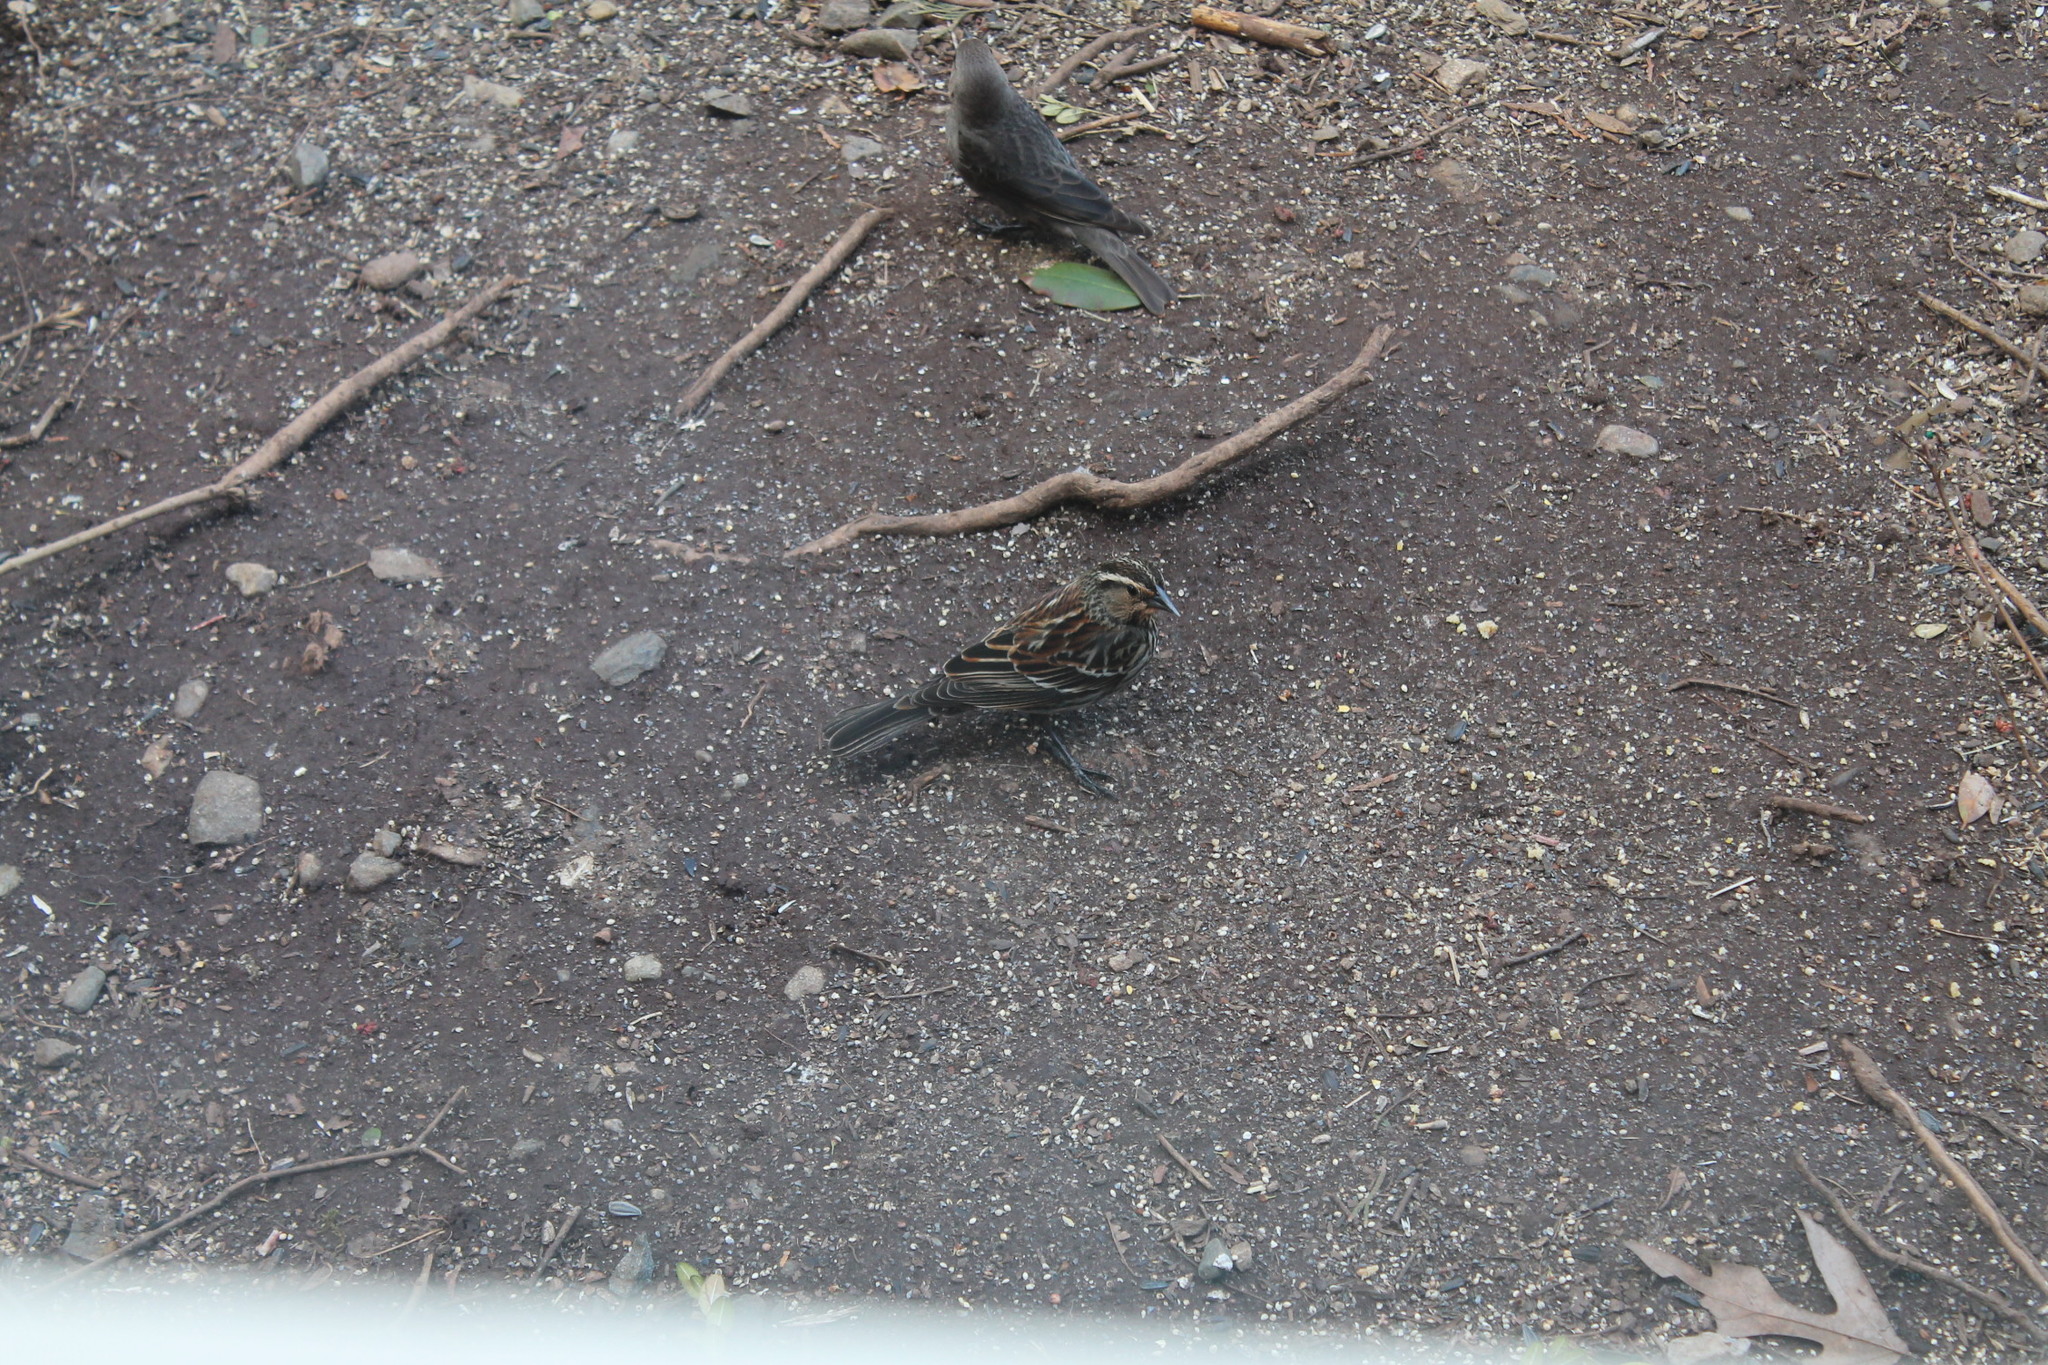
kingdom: Animalia
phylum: Chordata
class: Aves
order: Passeriformes
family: Icteridae
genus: Agelaius
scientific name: Agelaius phoeniceus
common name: Red-winged blackbird
